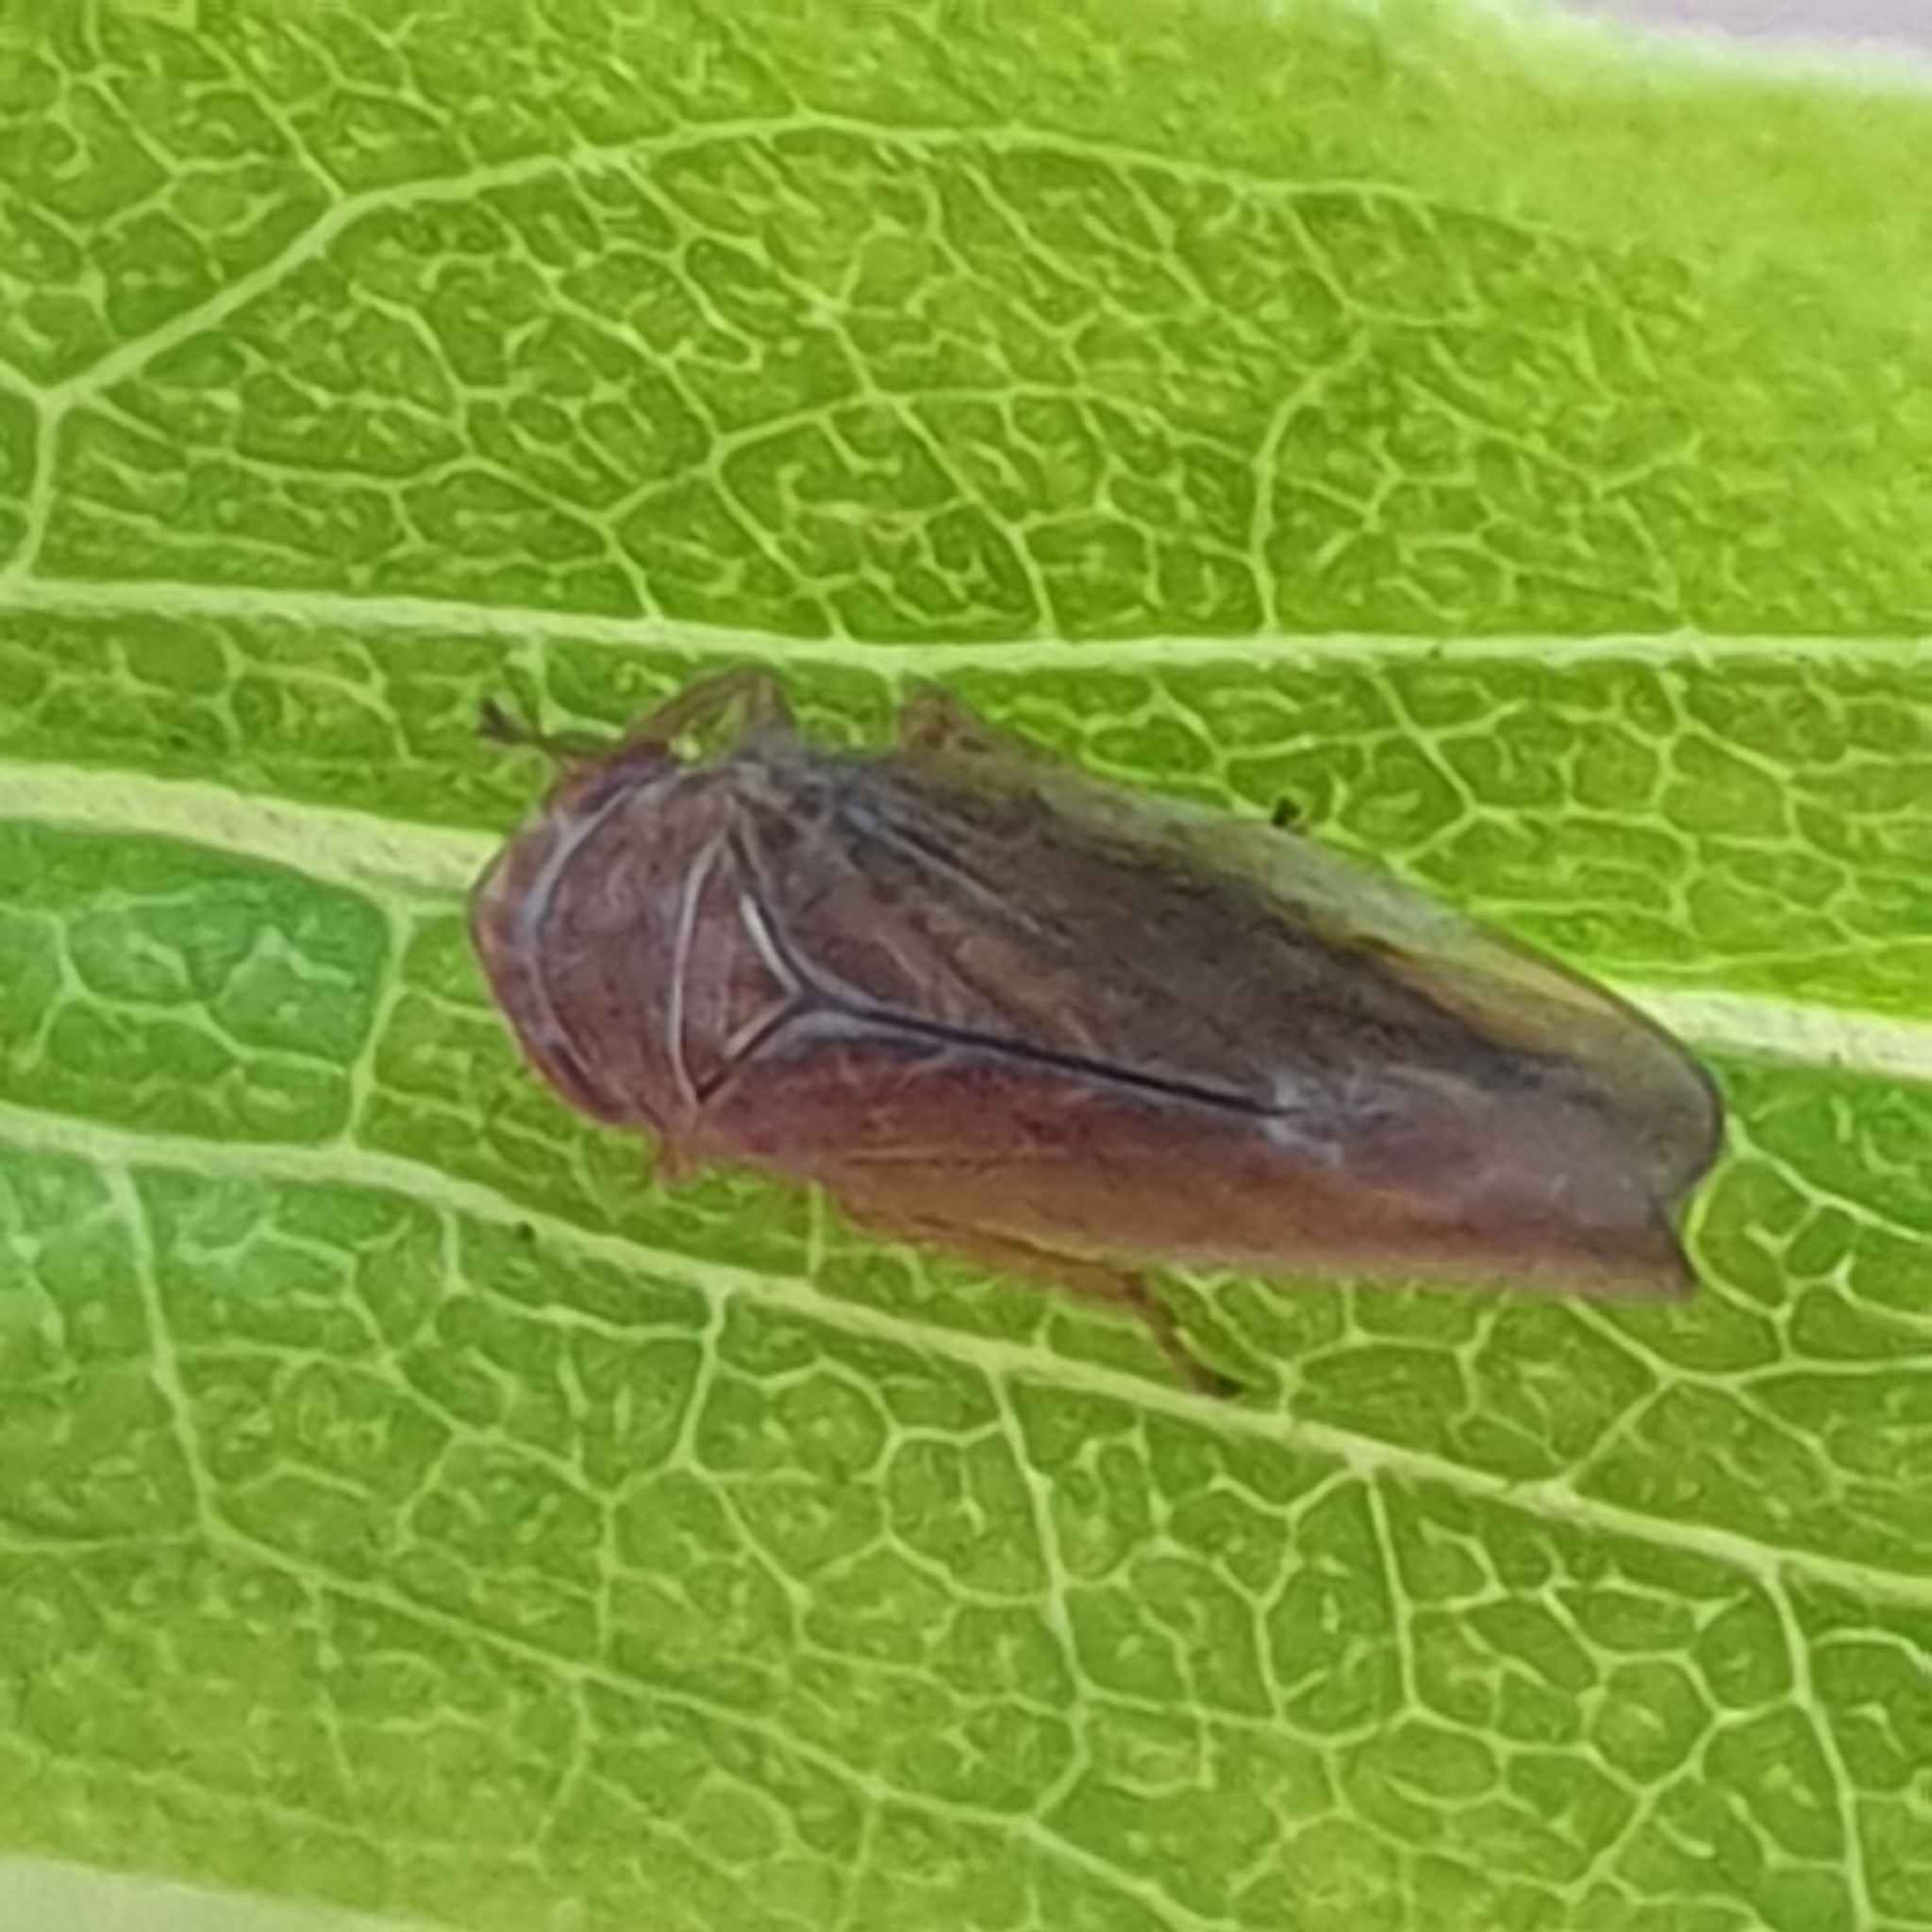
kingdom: Animalia
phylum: Arthropoda
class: Insecta
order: Hemiptera
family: Cicadellidae
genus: Idiodonus
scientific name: Idiodonus cruentatus
